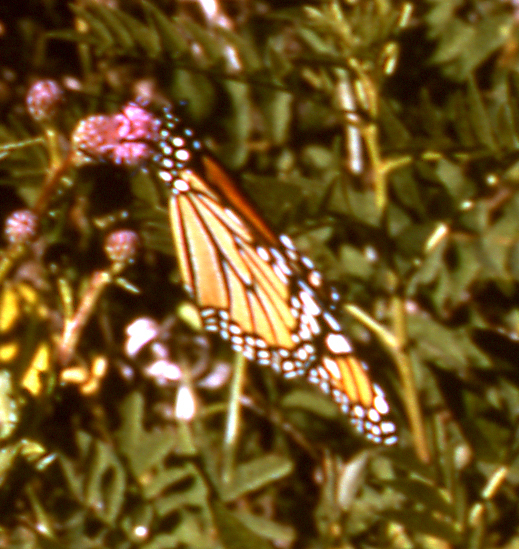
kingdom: Animalia
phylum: Arthropoda
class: Insecta
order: Lepidoptera
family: Nymphalidae
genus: Danaus
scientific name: Danaus plexippus
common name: Monarch
